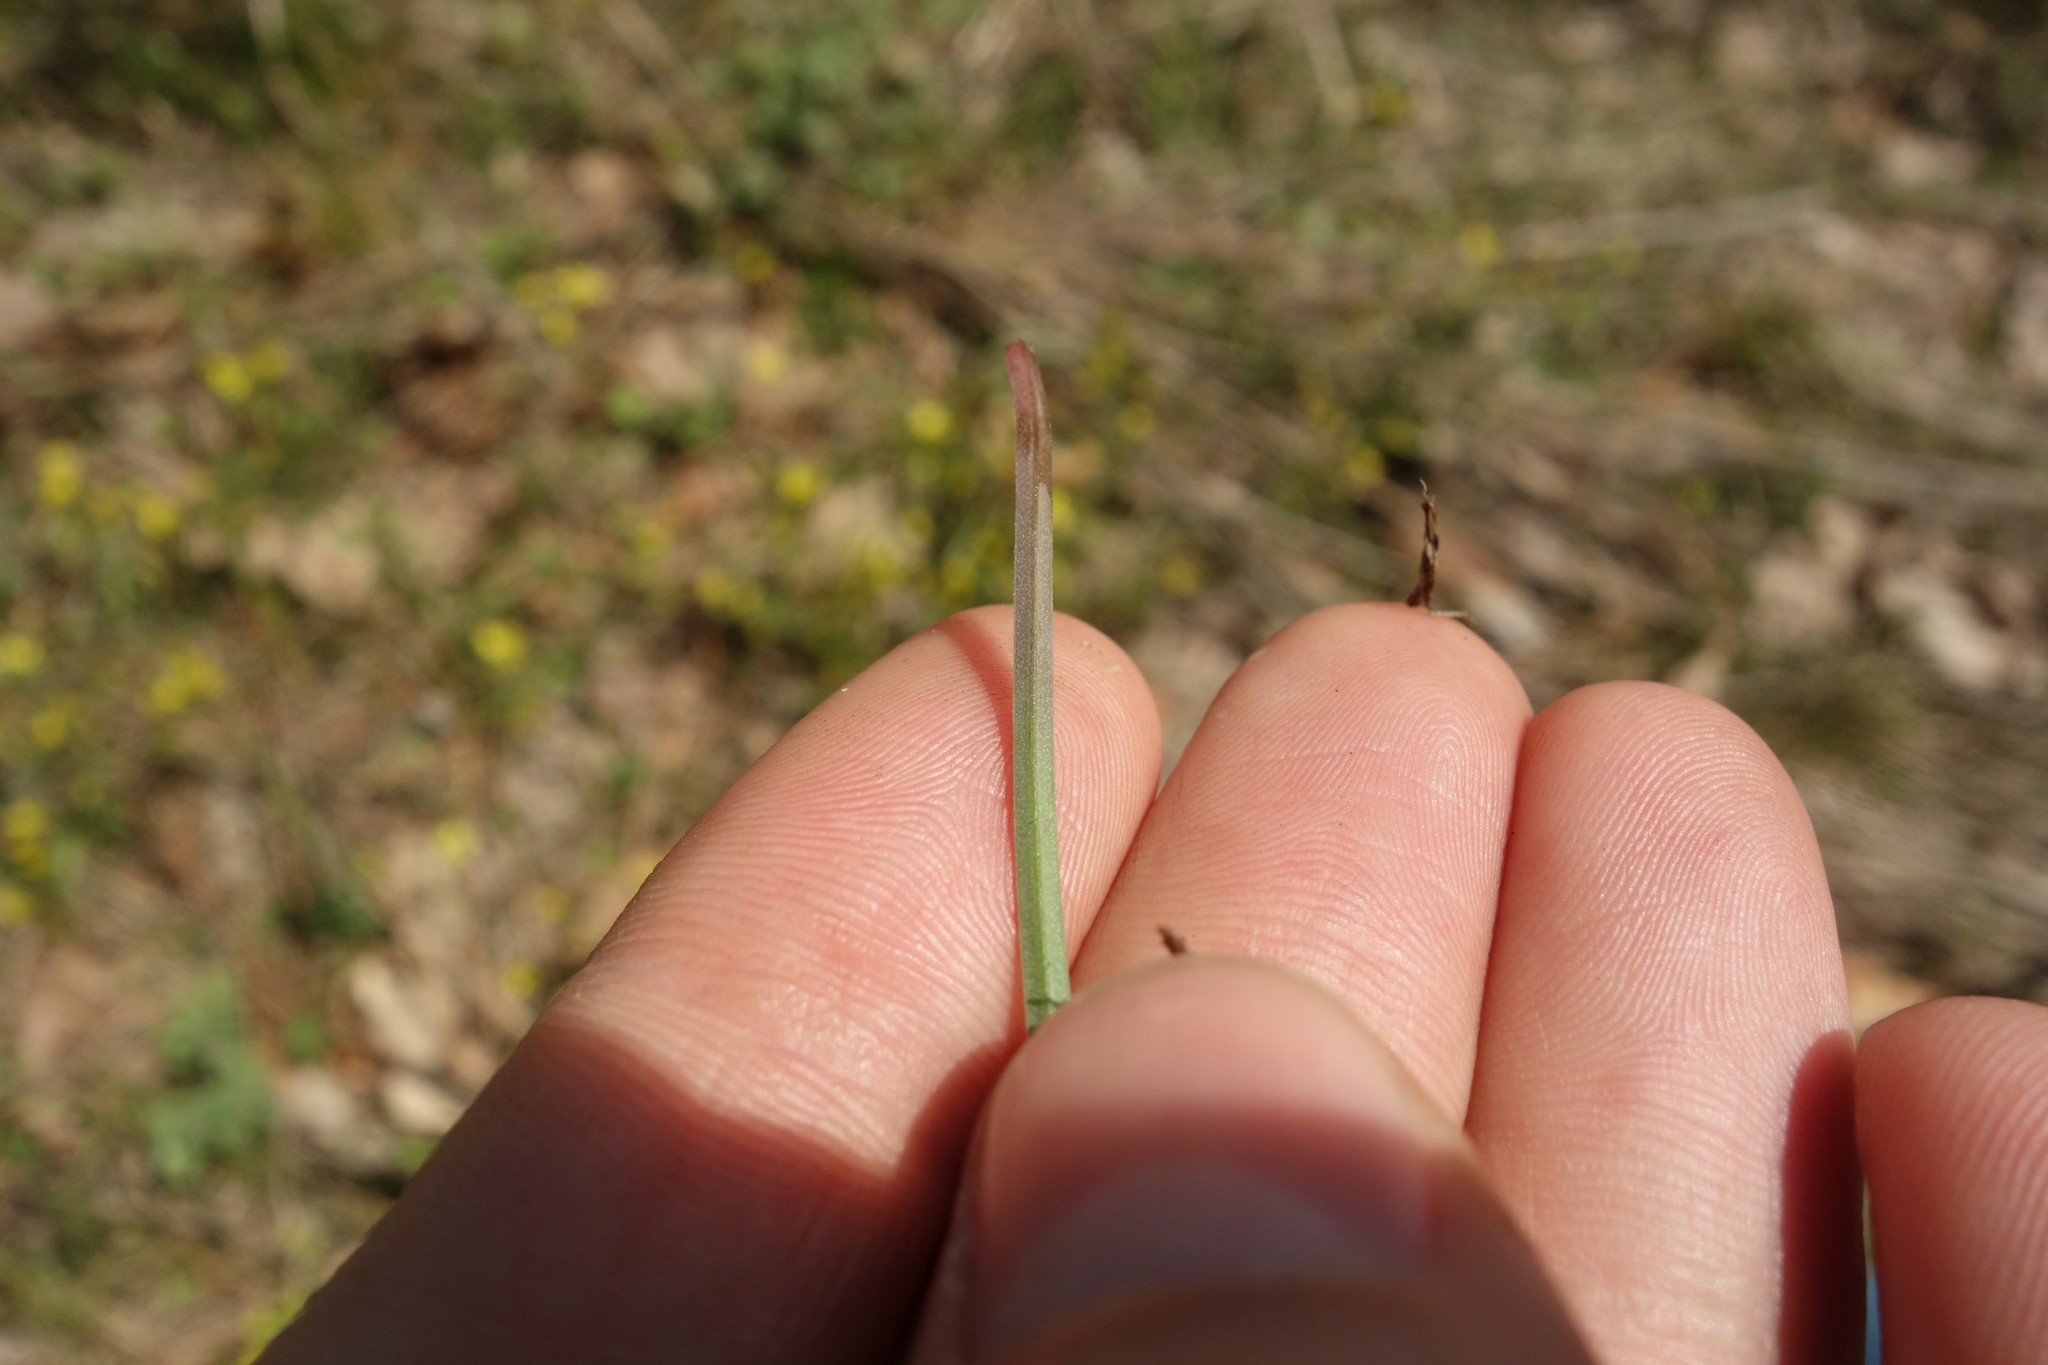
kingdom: Plantae
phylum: Tracheophyta
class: Liliopsida
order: Liliales
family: Liliaceae
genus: Gagea
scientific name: Gagea fragifera
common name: Lily
